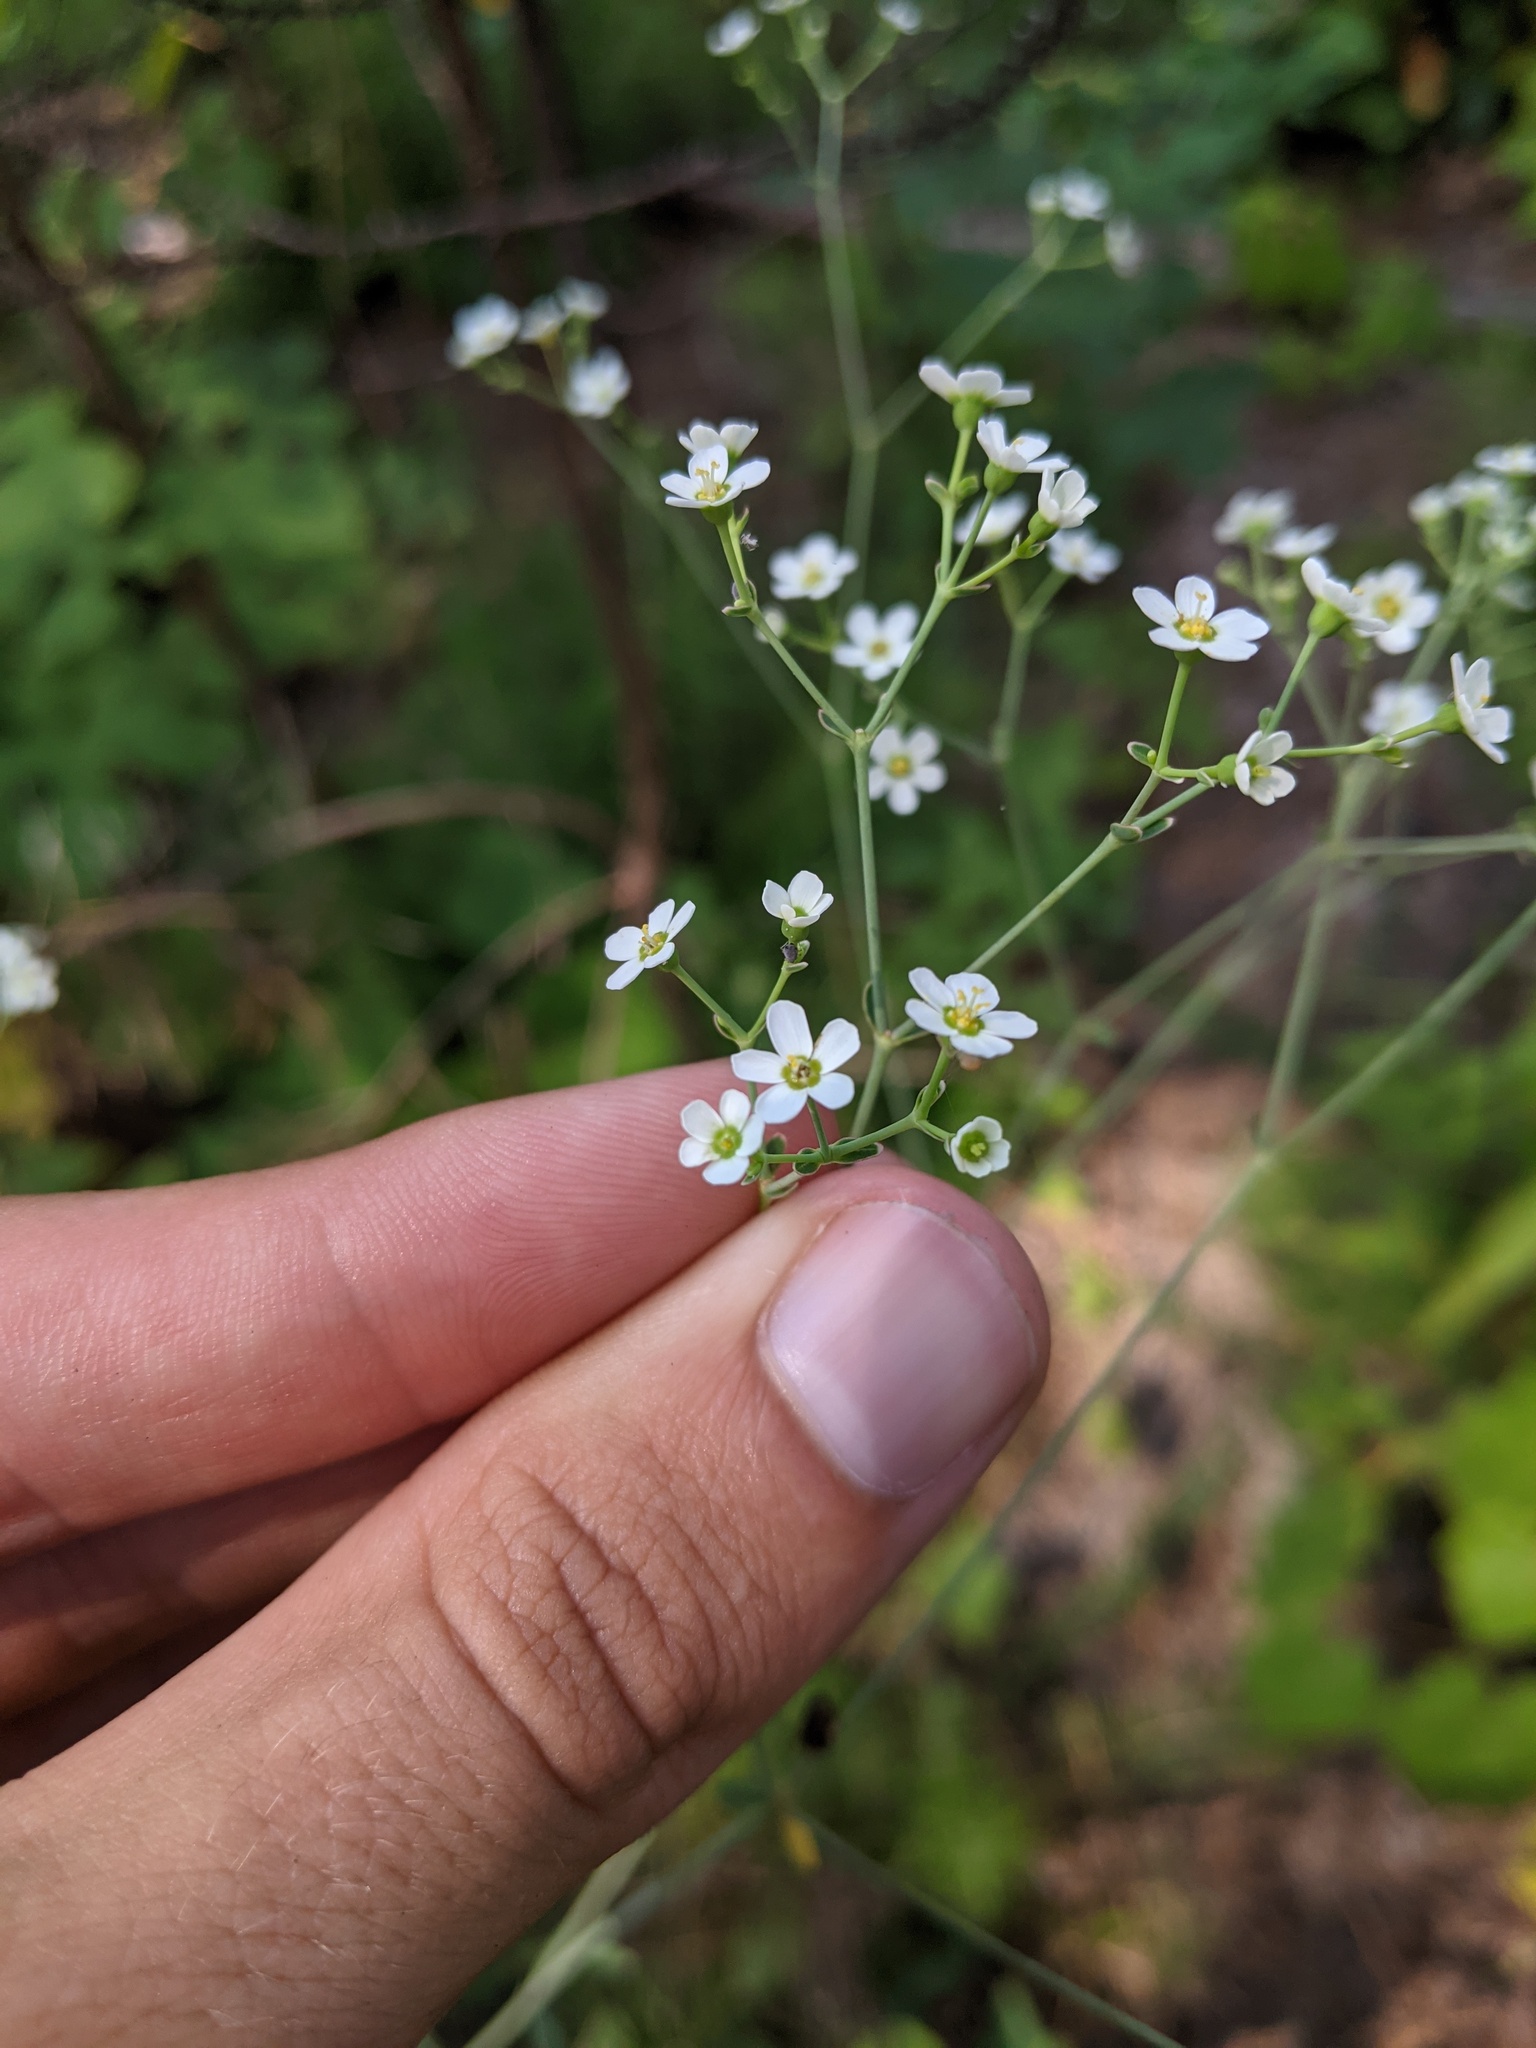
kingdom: Plantae
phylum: Tracheophyta
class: Magnoliopsida
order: Malpighiales
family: Euphorbiaceae
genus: Euphorbia
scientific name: Euphorbia corollata
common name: Flowering spurge
